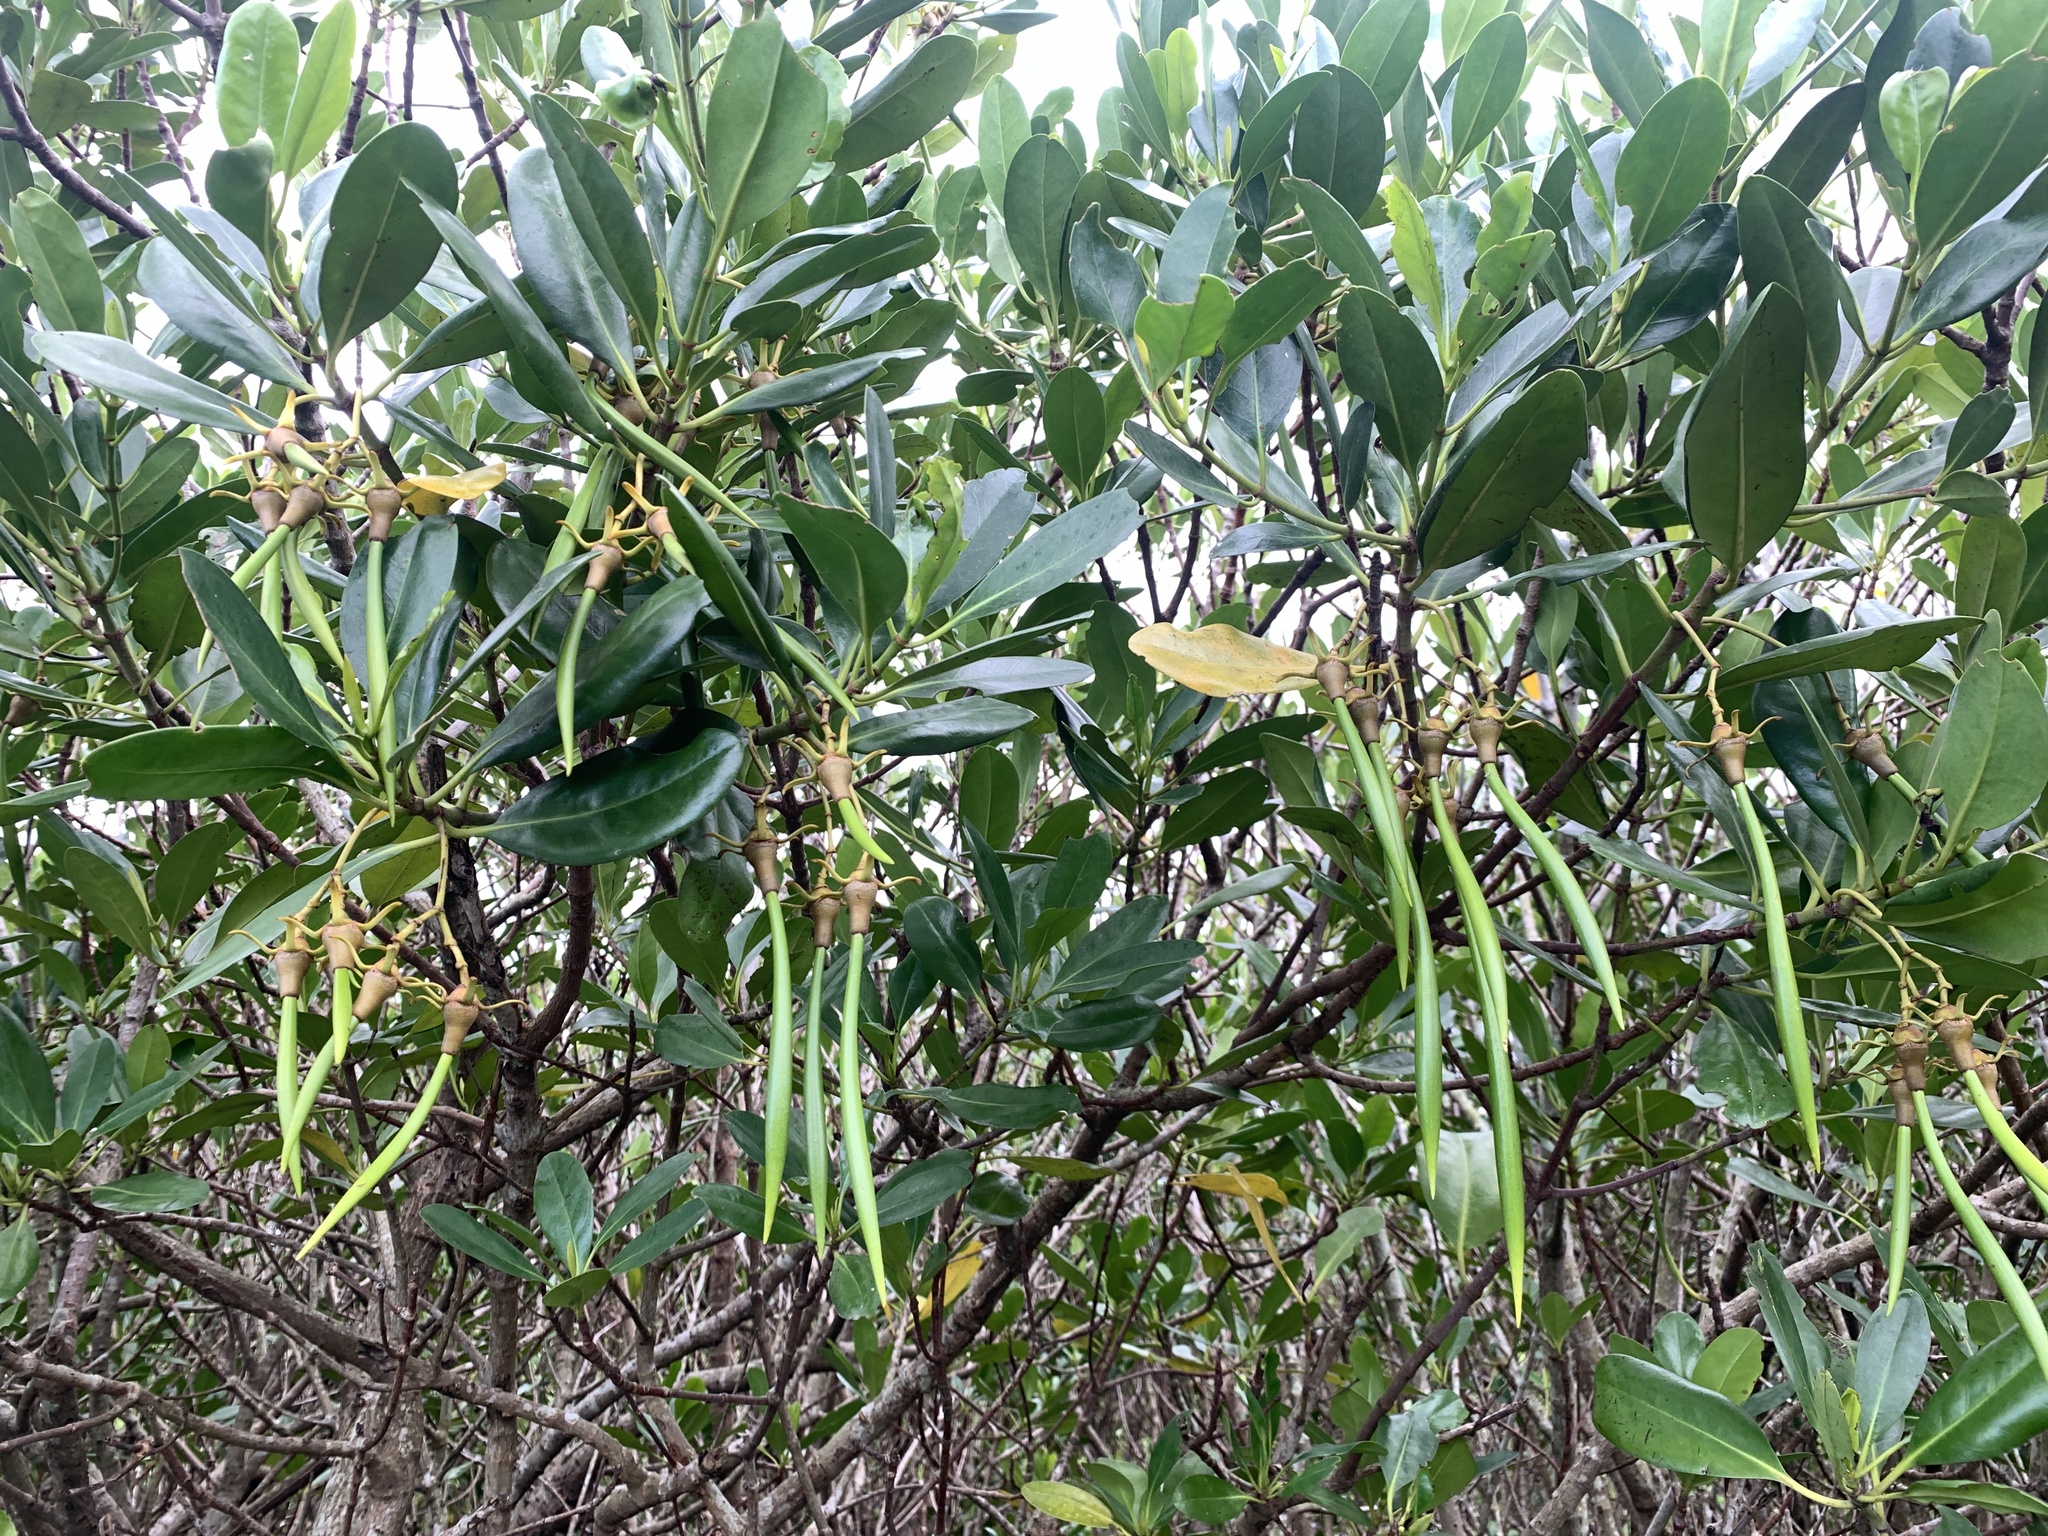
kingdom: Plantae
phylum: Tracheophyta
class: Magnoliopsida
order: Malpighiales
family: Rhizophoraceae
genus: Kandelia
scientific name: Kandelia obovata
